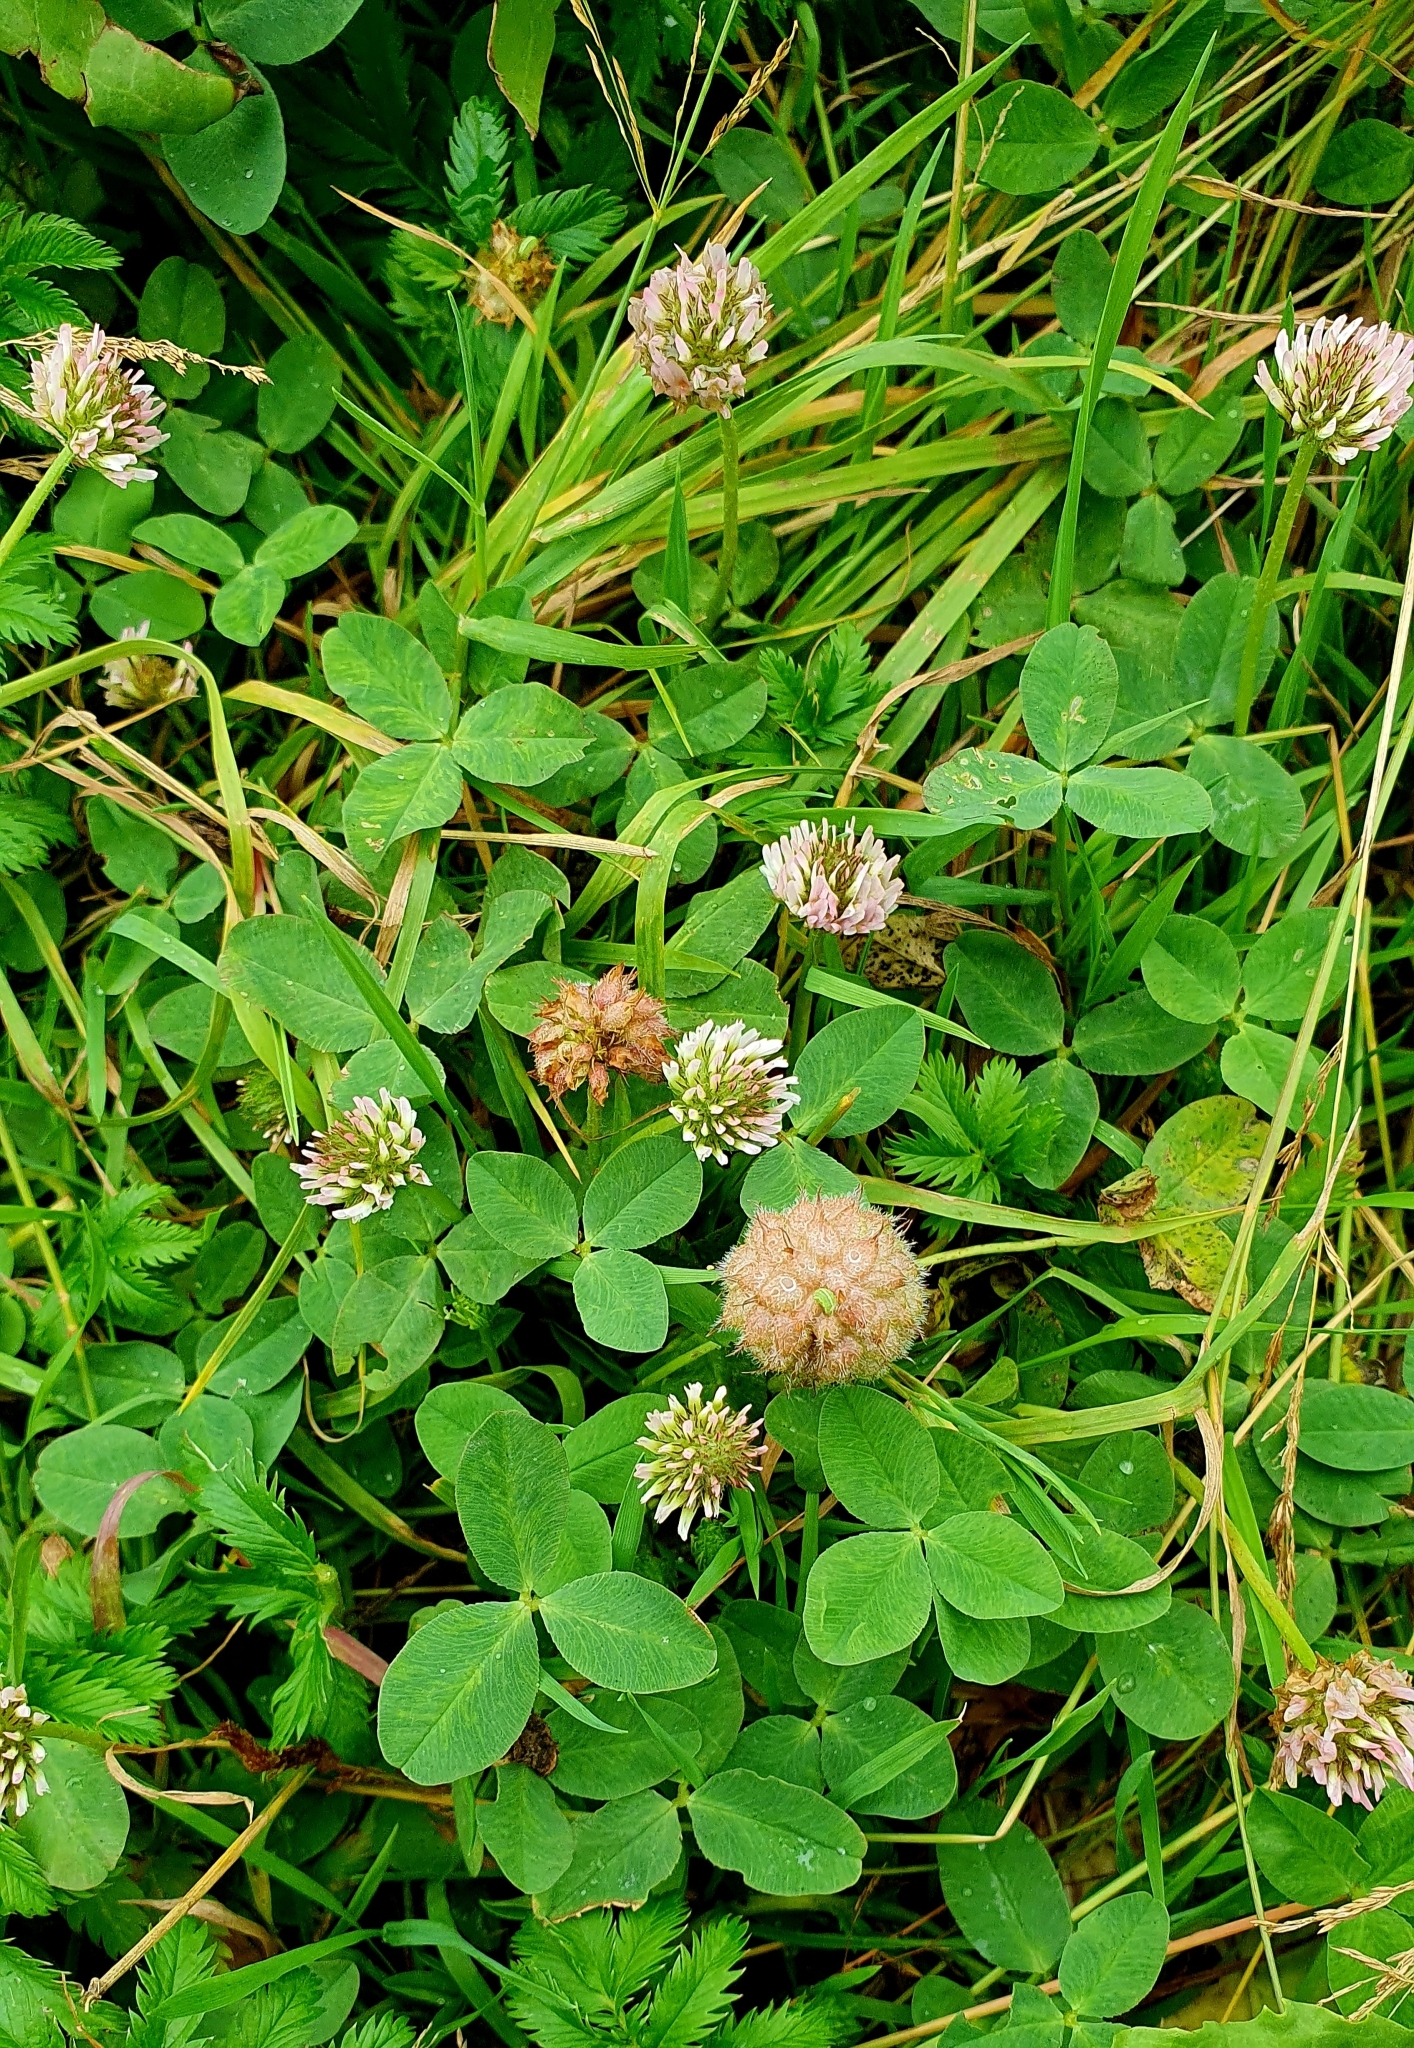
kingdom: Plantae
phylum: Tracheophyta
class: Magnoliopsida
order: Fabales
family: Fabaceae
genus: Trifolium
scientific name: Trifolium fragiferum
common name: Strawberry clover
